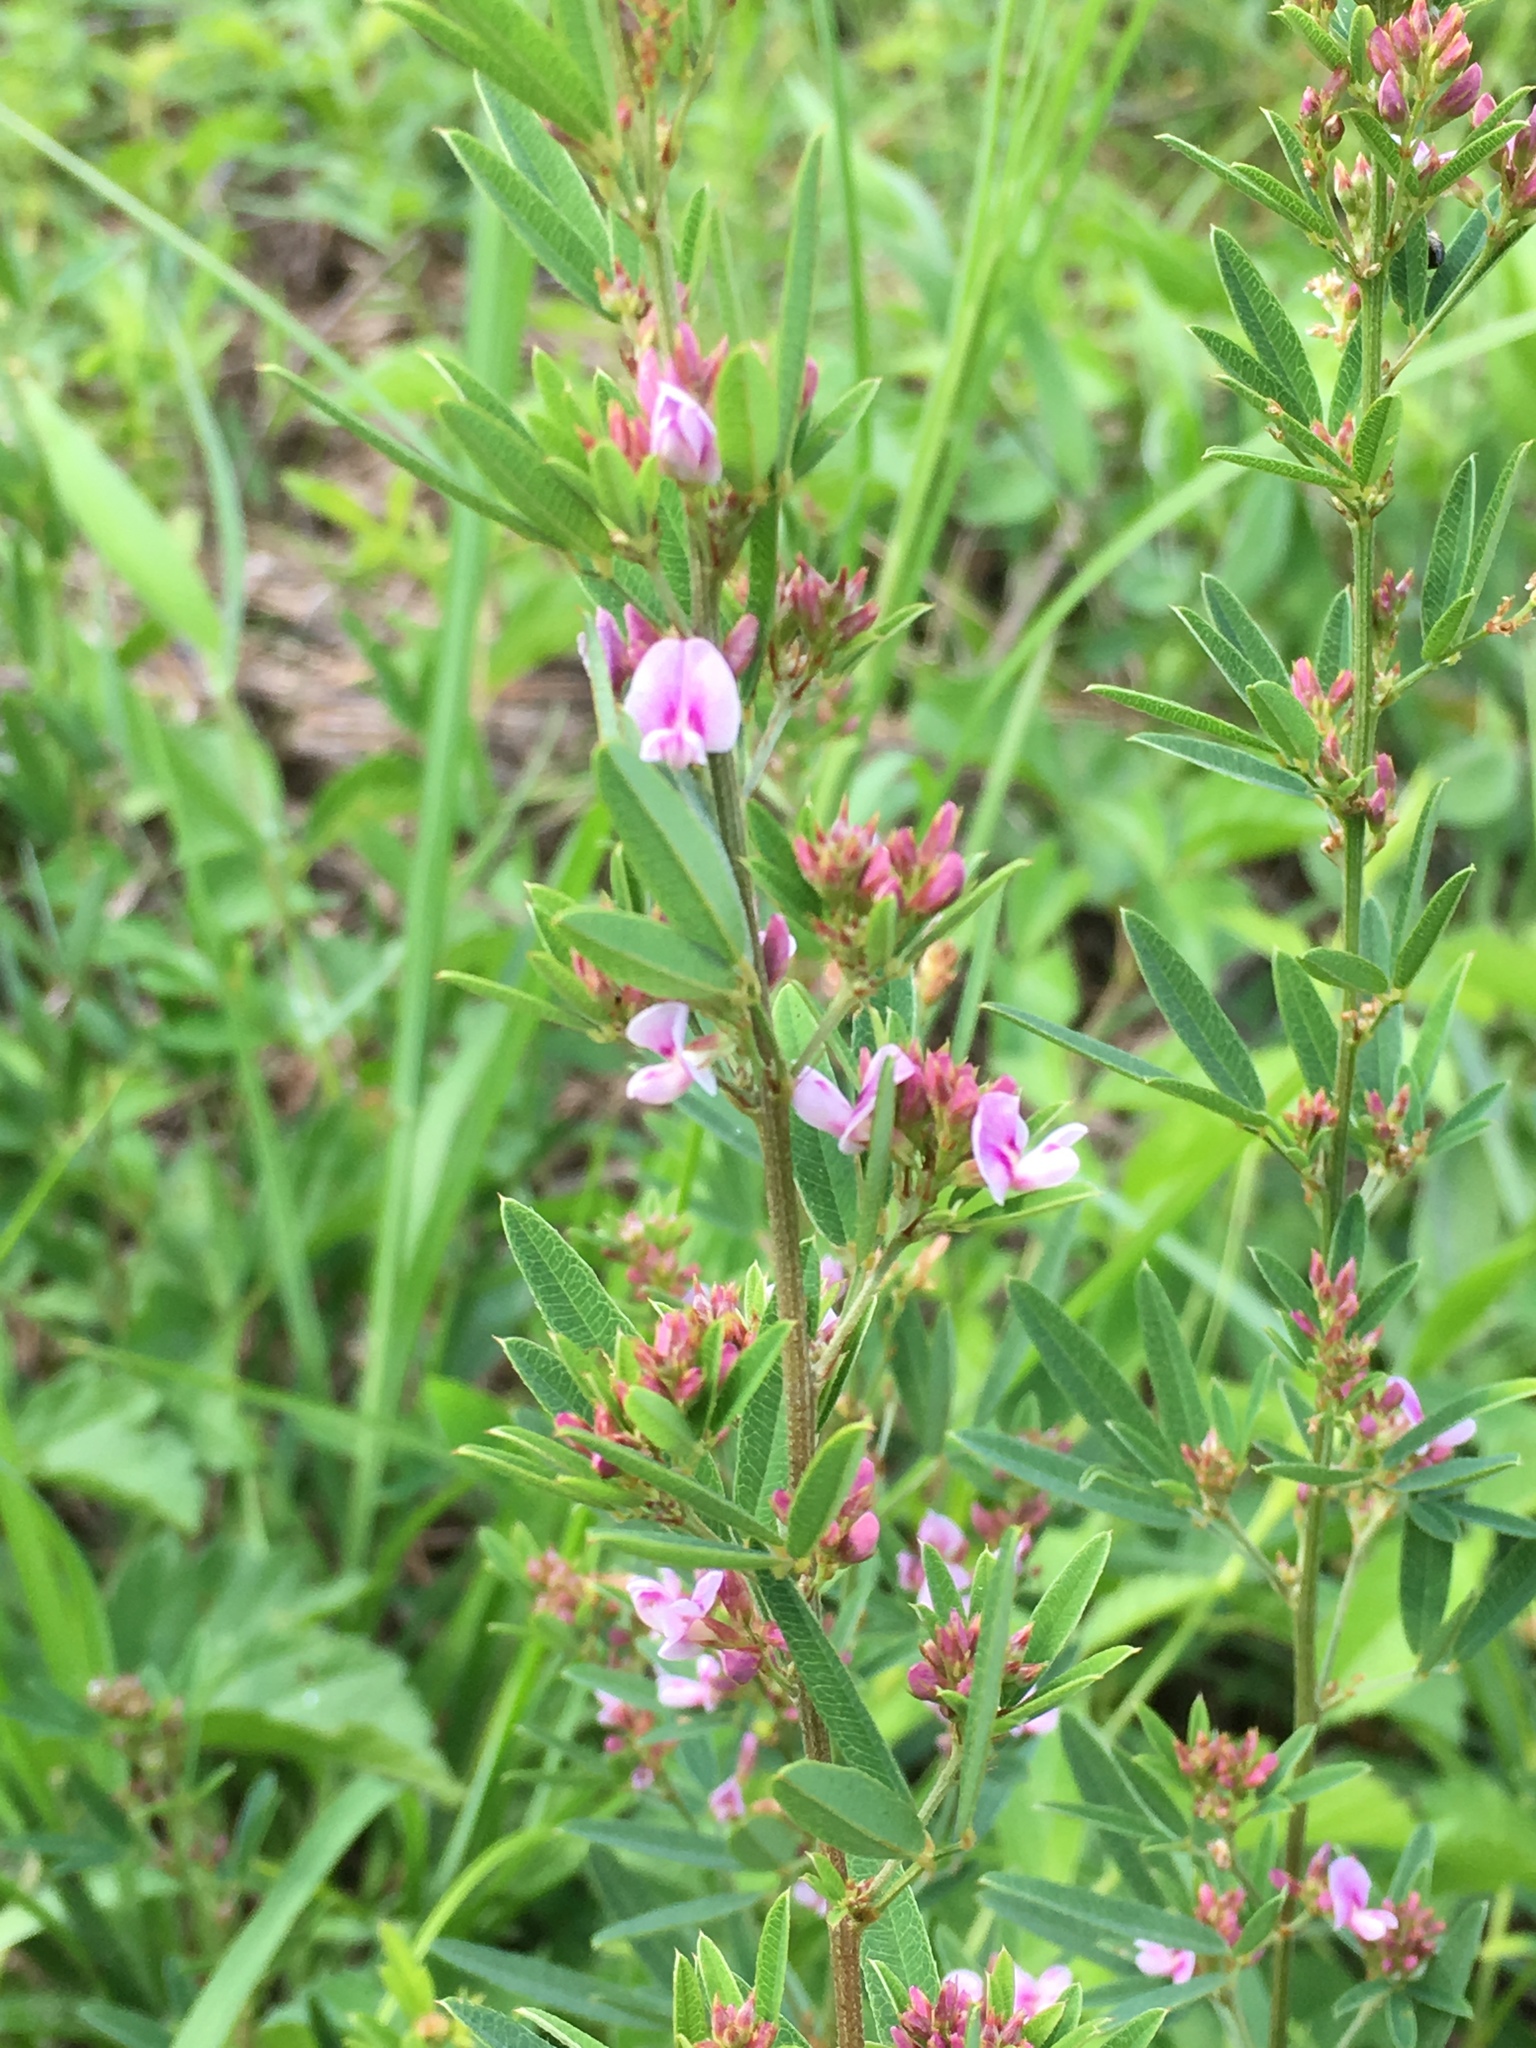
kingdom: Plantae
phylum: Tracheophyta
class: Magnoliopsida
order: Fabales
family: Fabaceae
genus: Lespedeza
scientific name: Lespedeza virginica
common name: Slender bush-clover
